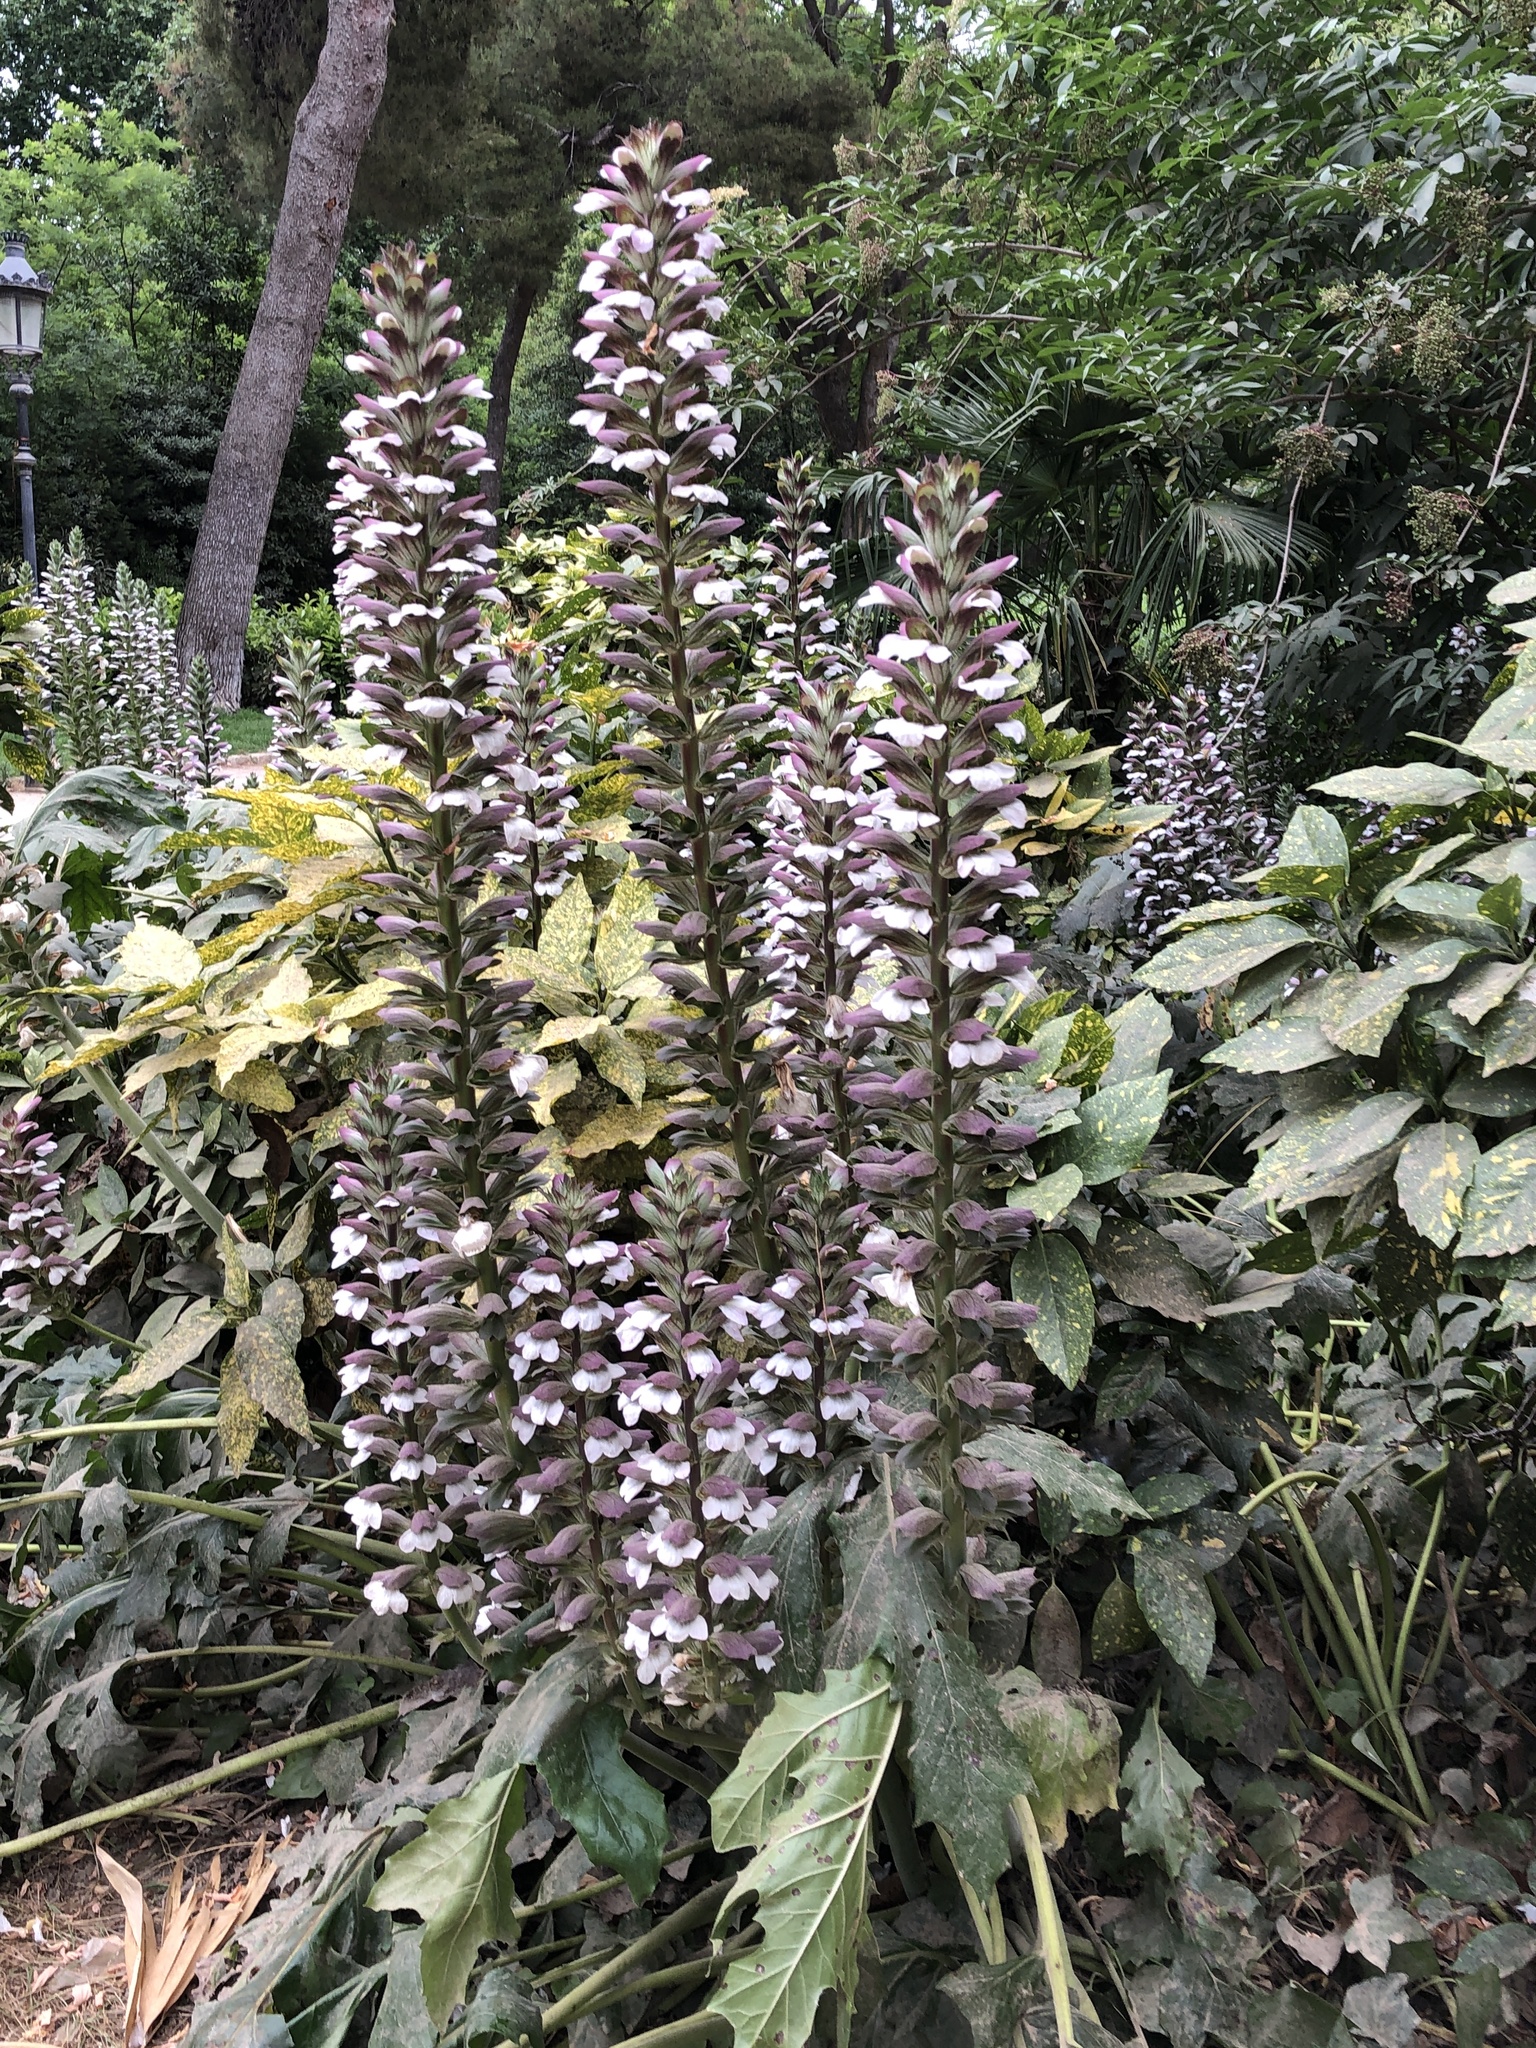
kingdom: Plantae
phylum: Tracheophyta
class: Magnoliopsida
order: Lamiales
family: Acanthaceae
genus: Acanthus
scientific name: Acanthus mollis
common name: Bear's-breech
